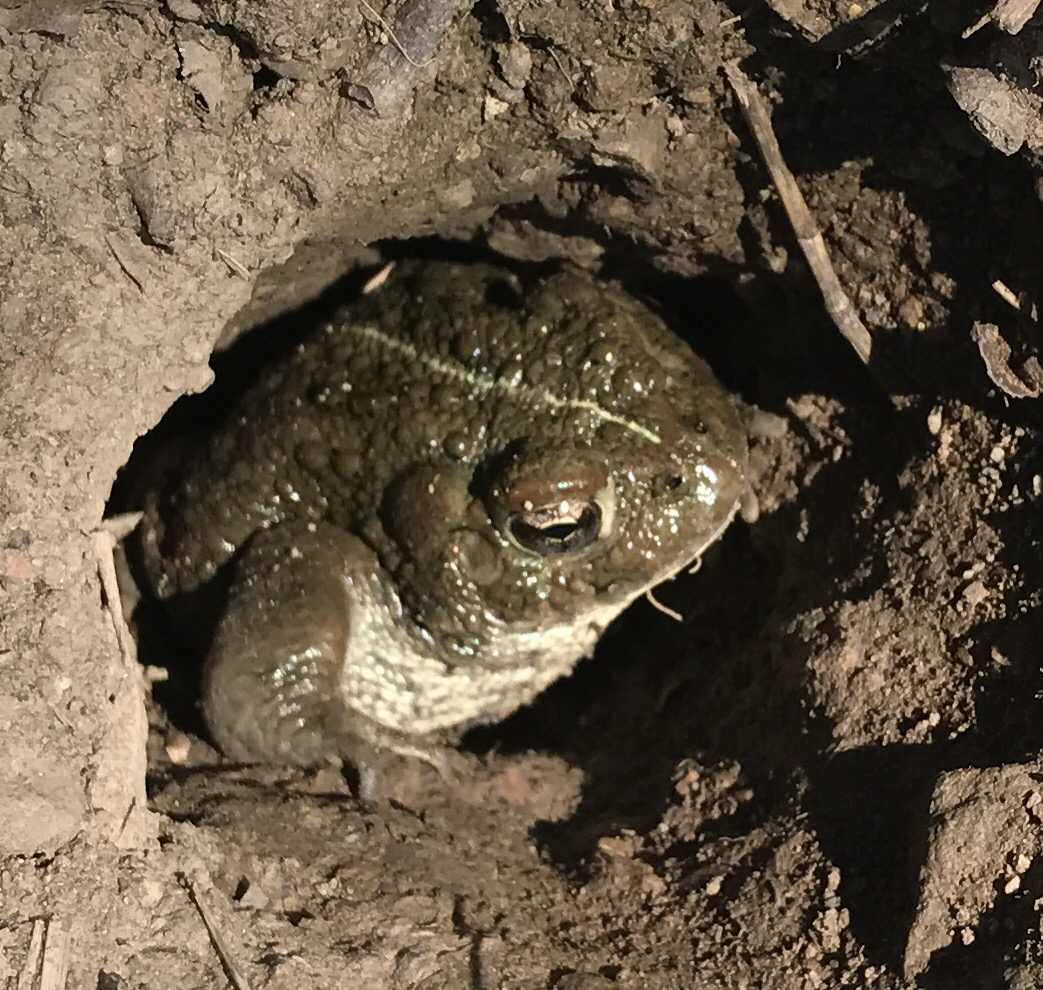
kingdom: Animalia
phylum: Chordata
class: Amphibia
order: Anura
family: Bufonidae
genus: Anaxyrus
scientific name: Anaxyrus boreas
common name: Western toad
